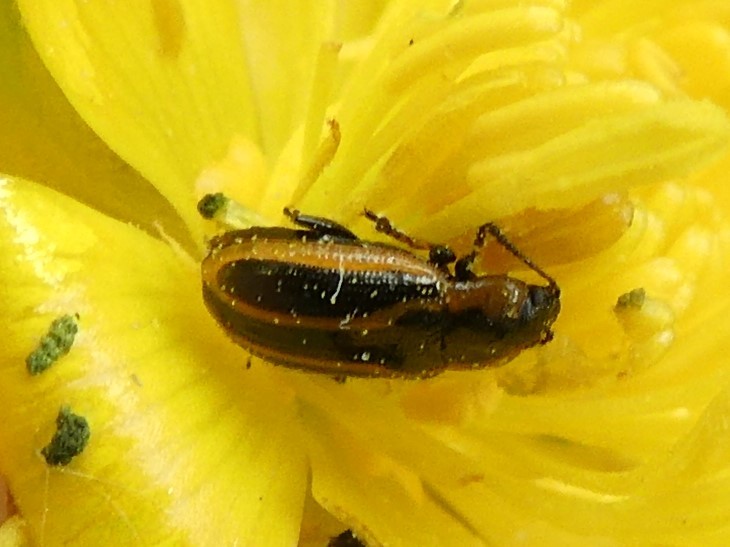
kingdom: Animalia
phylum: Arthropoda
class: Insecta
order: Coleoptera
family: Chrysomelidae
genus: Prasocuris
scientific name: Prasocuris vittata
